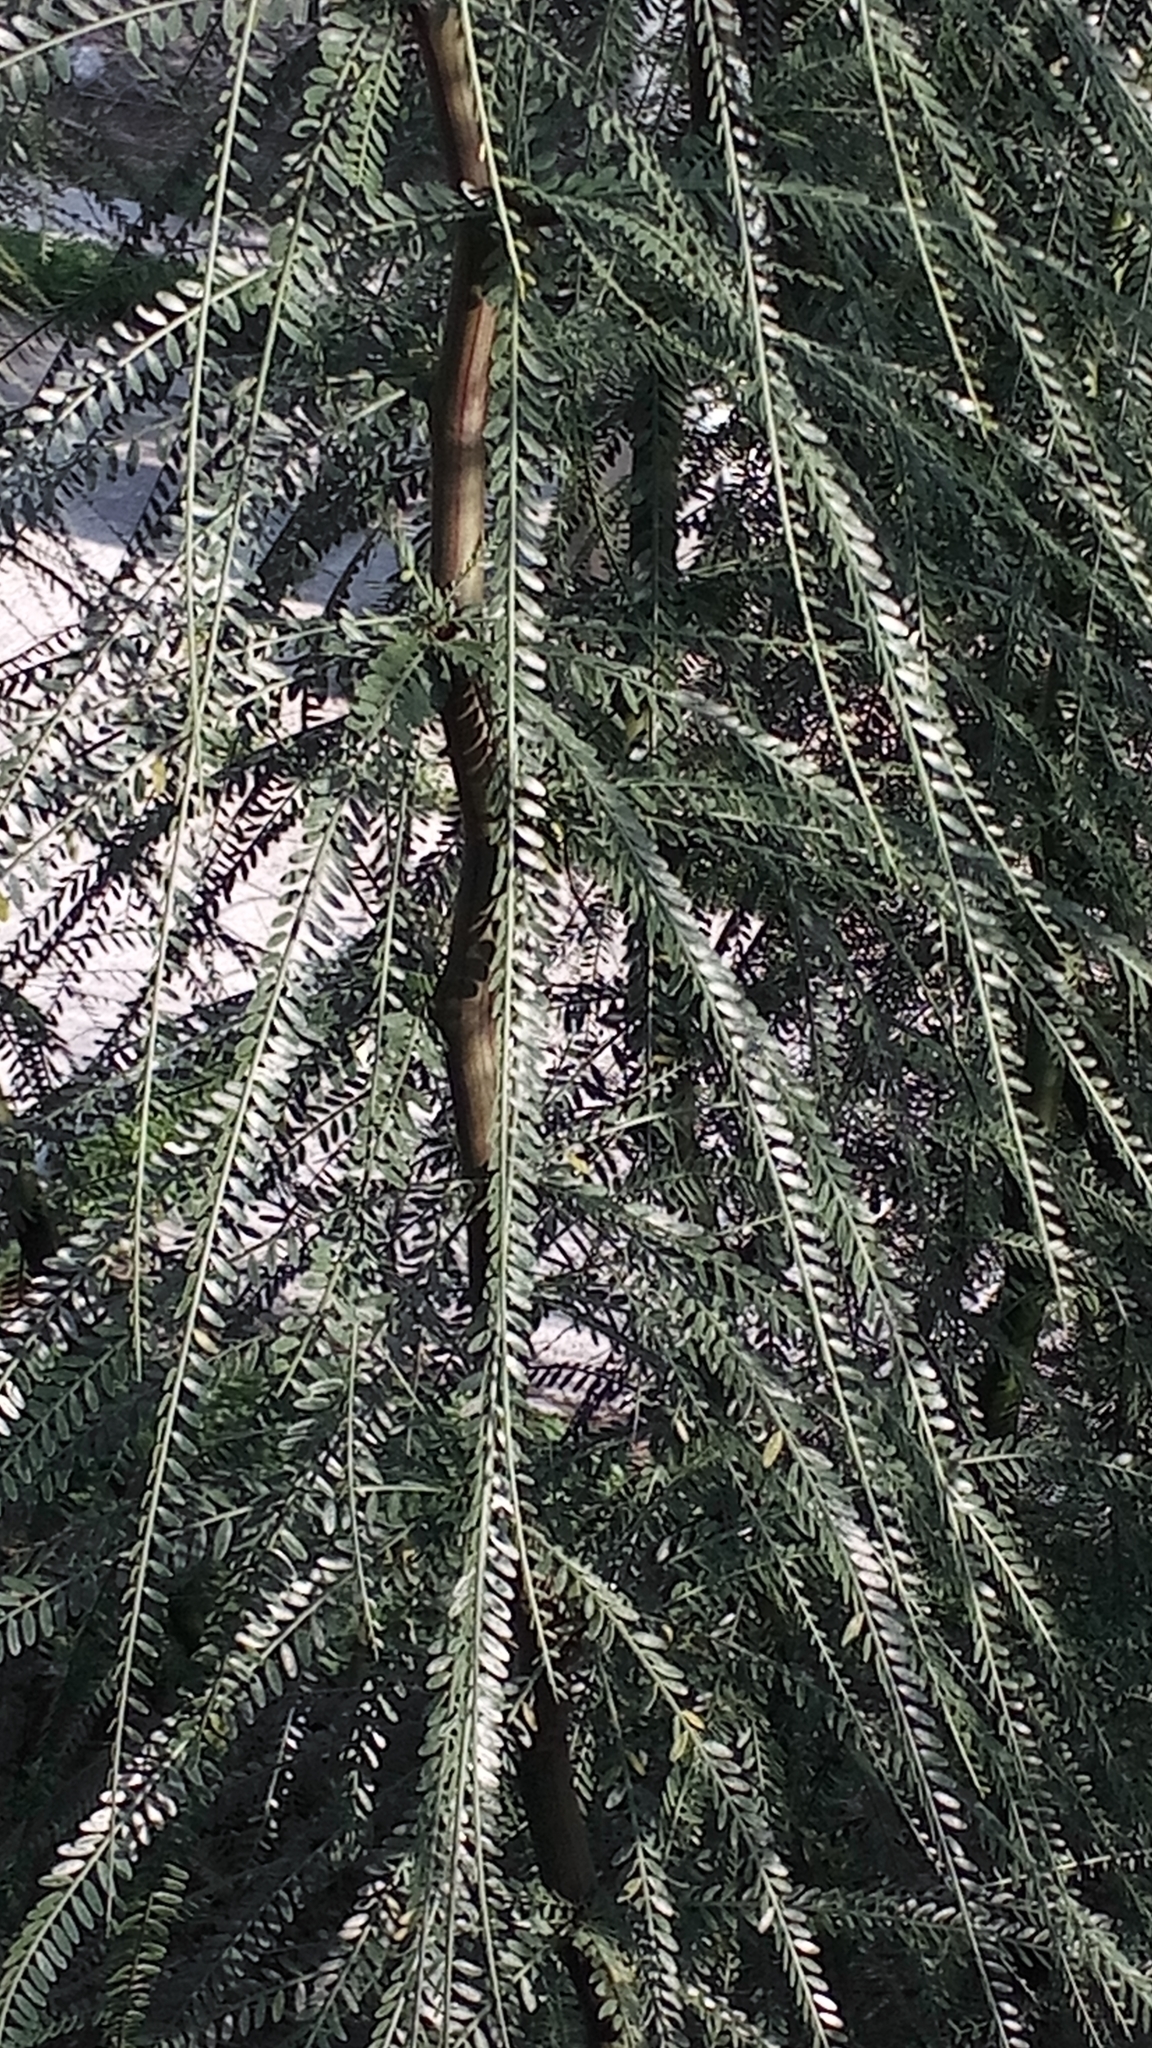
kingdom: Plantae
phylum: Tracheophyta
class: Magnoliopsida
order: Fabales
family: Fabaceae
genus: Parkinsonia
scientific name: Parkinsonia aculeata
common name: Jerusalem thorn
